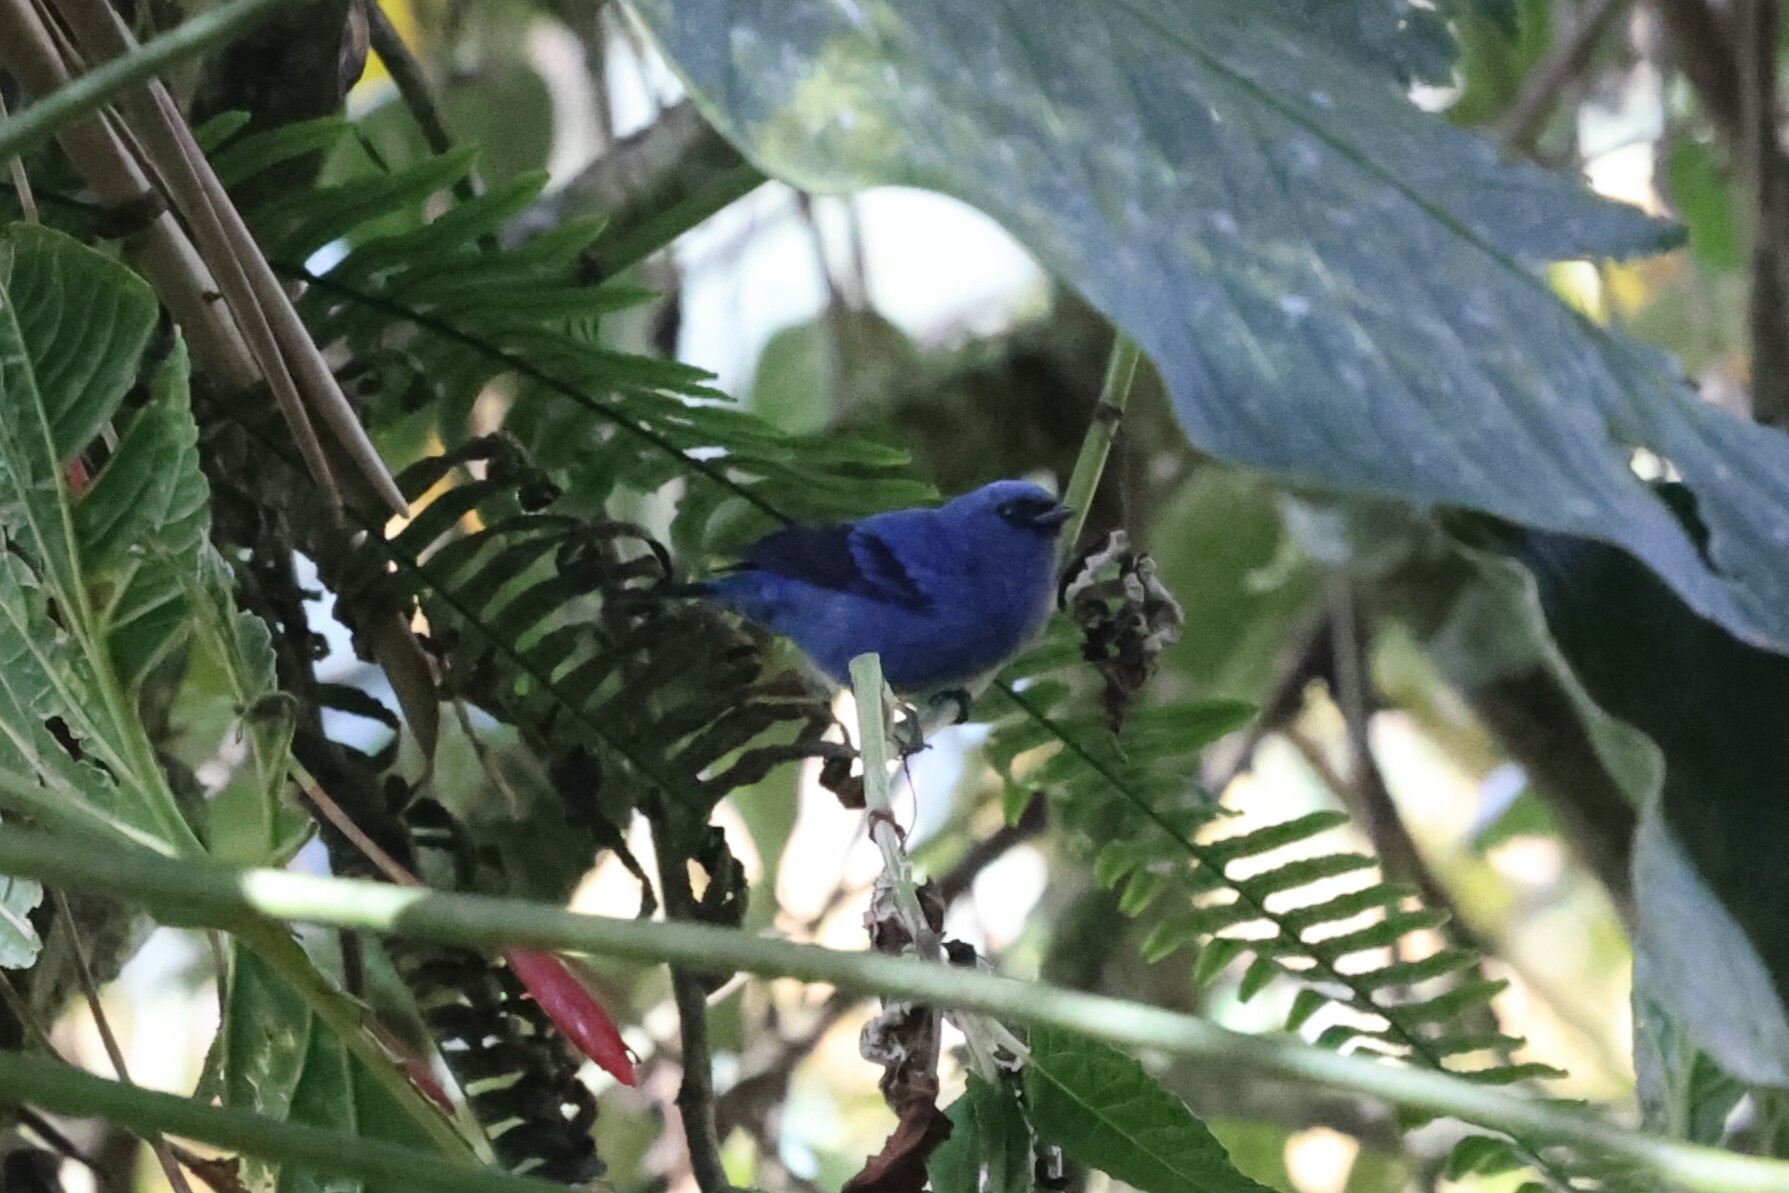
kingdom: Animalia
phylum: Chordata
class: Aves
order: Passeriformes
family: Thraupidae
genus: Tangara
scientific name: Tangara vassorii
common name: Blue-and-black tanager
